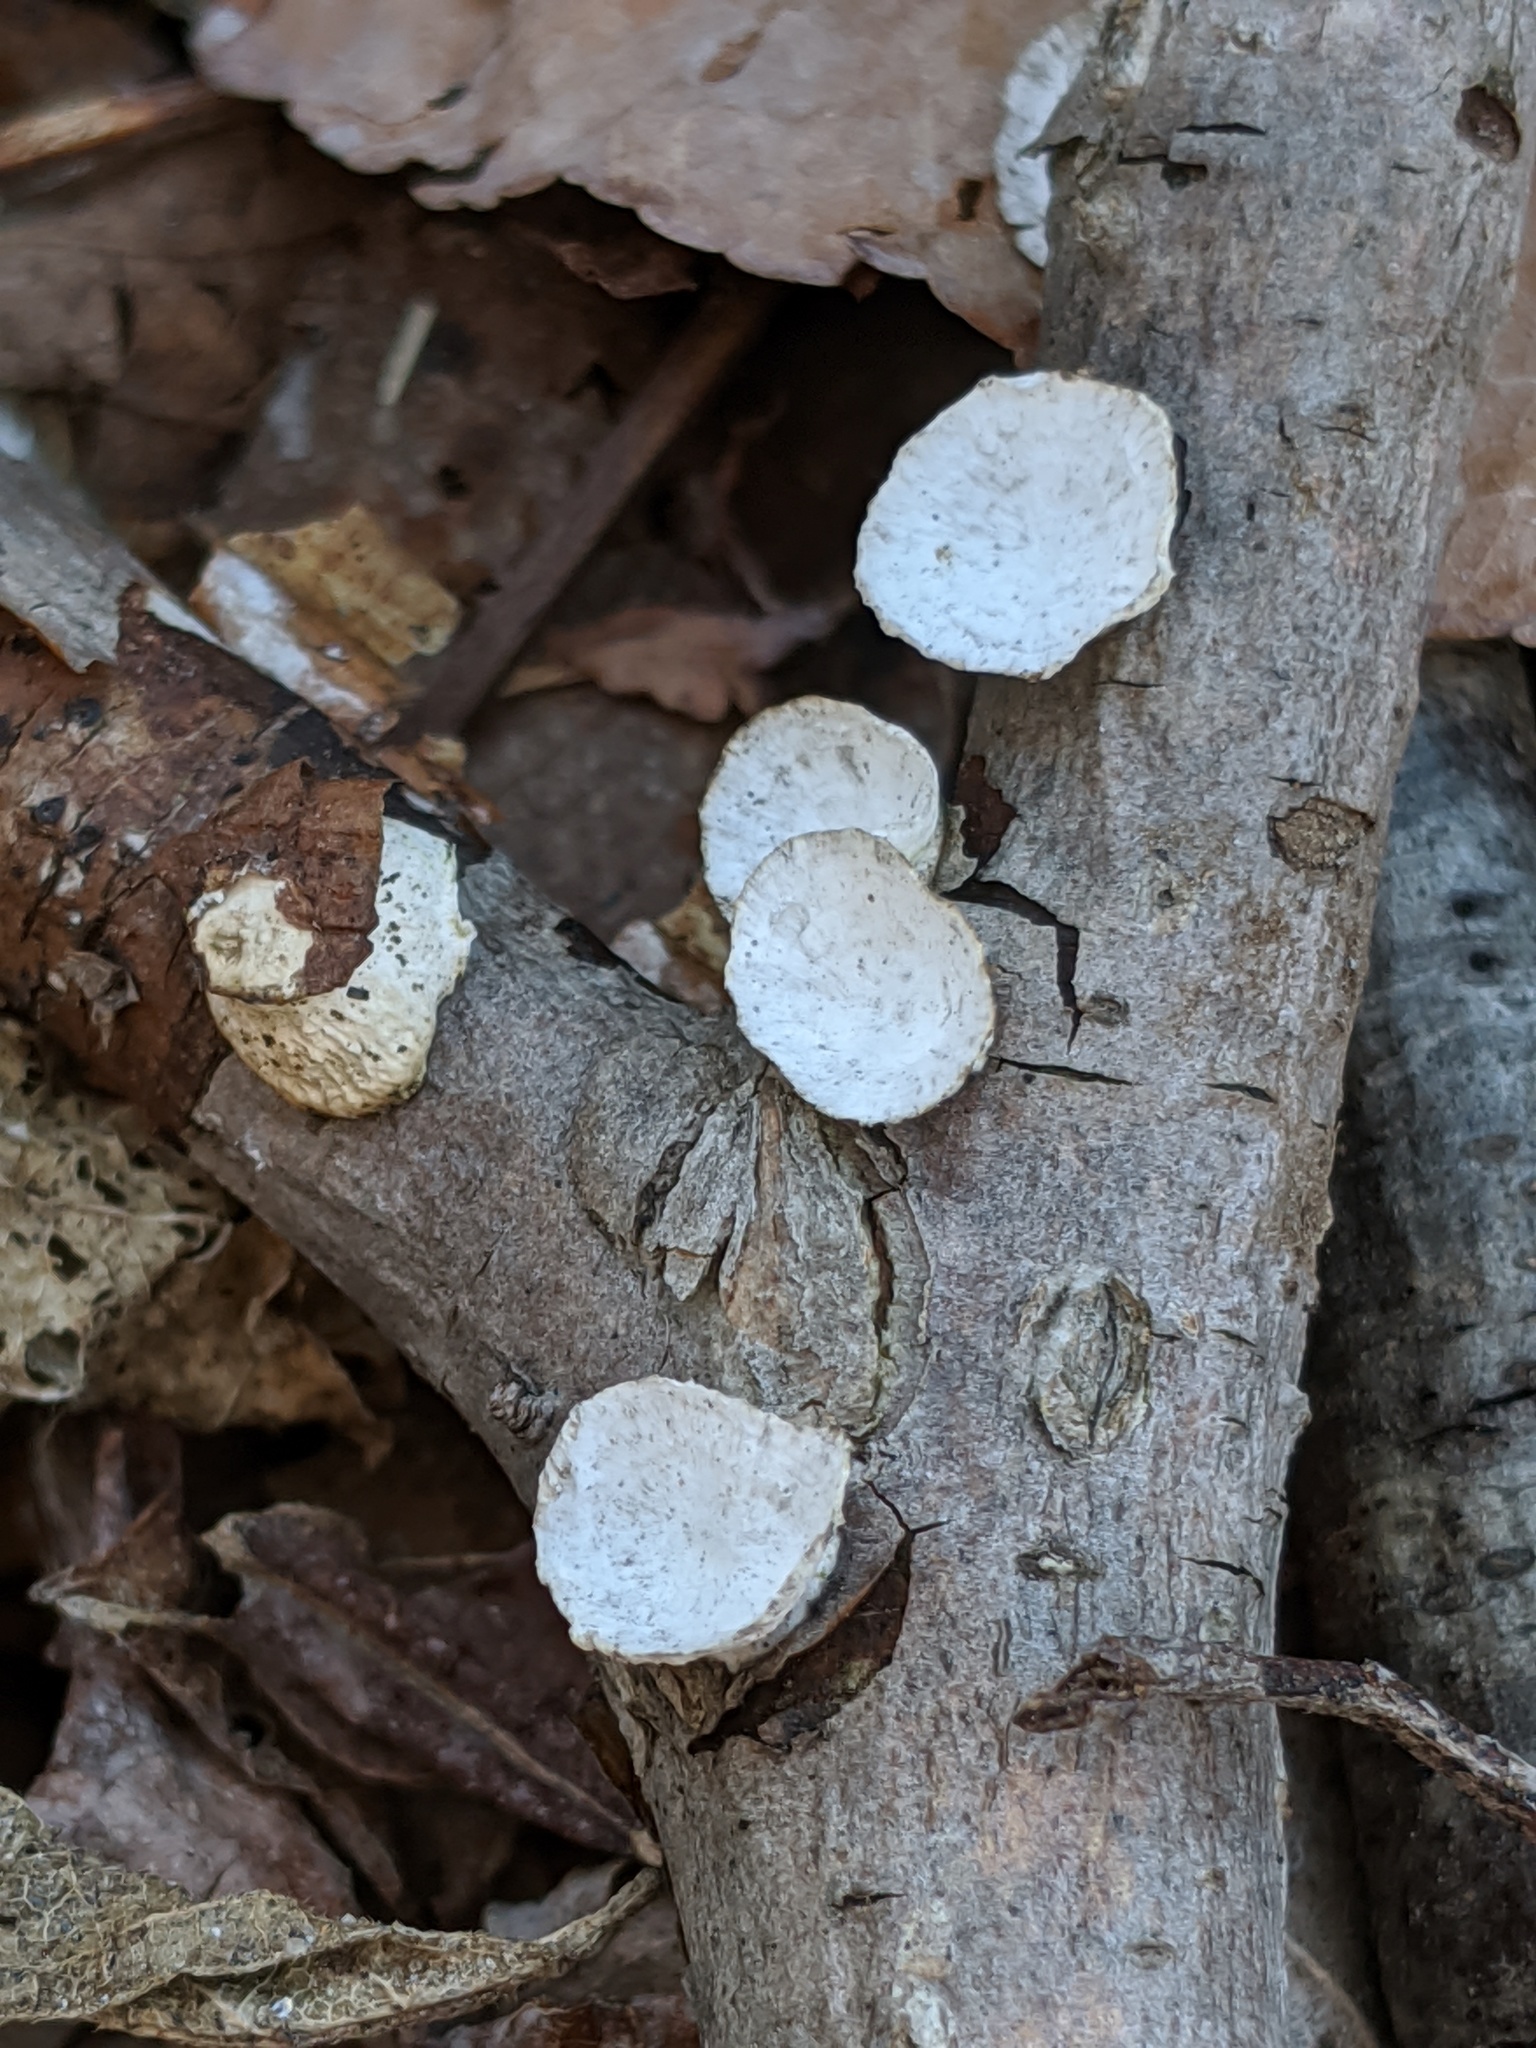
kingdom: Fungi
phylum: Basidiomycota
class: Agaricomycetes
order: Polyporales
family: Polyporaceae
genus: Poronidulus
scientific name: Poronidulus conchifer
